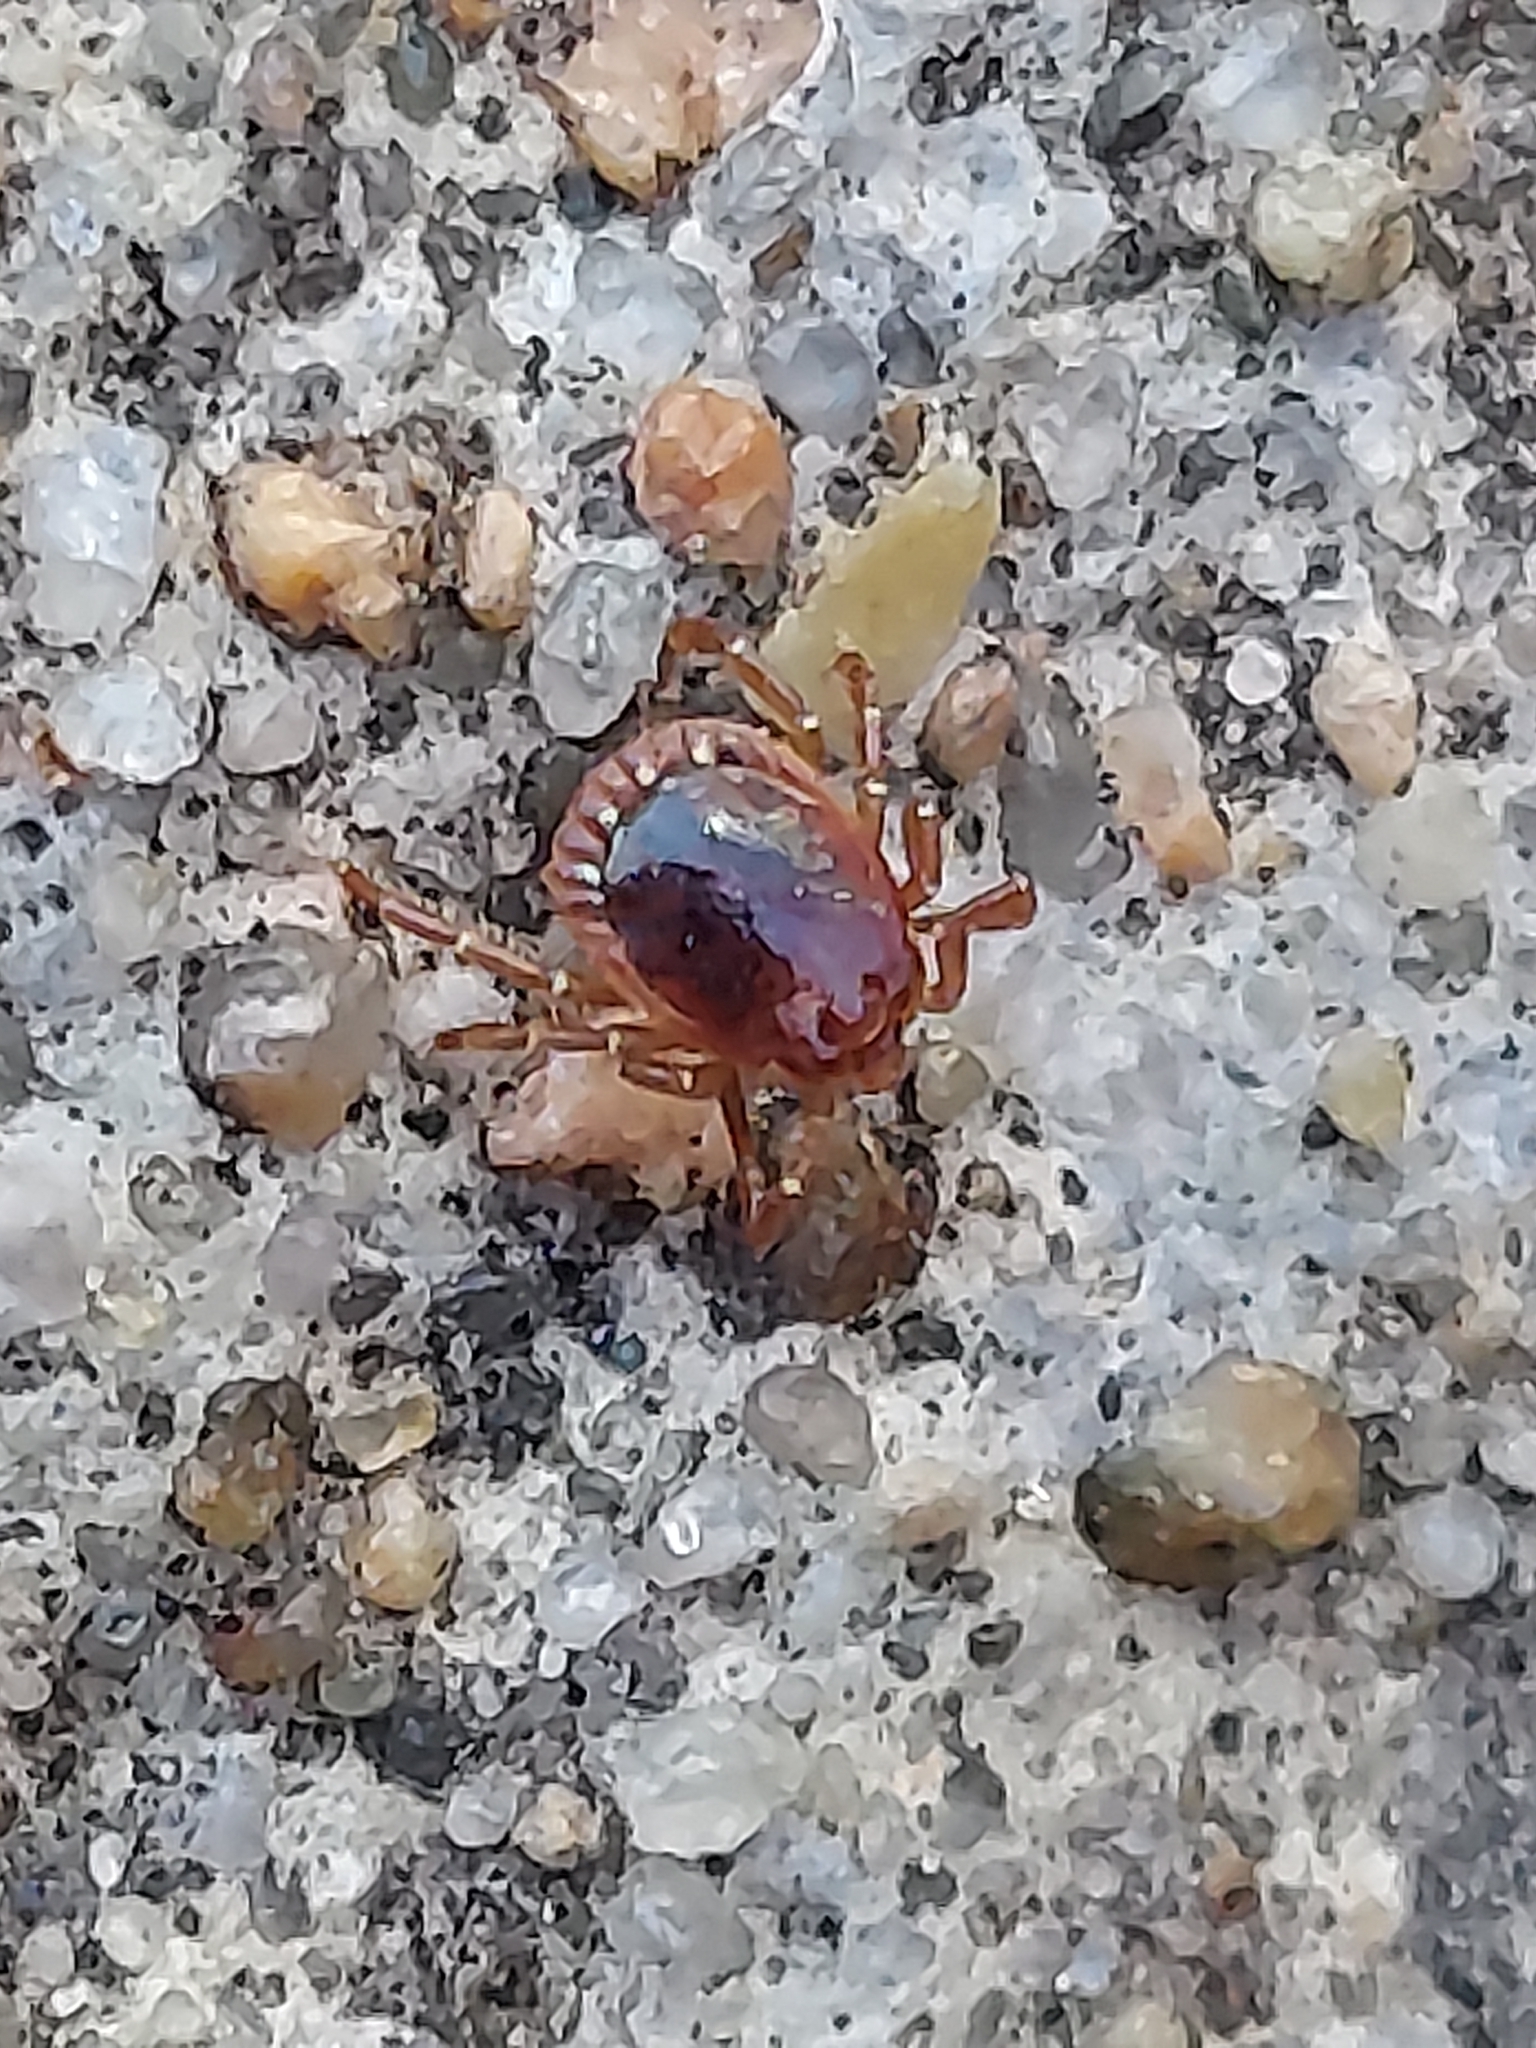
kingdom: Animalia
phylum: Arthropoda
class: Arachnida
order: Ixodida
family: Ixodidae
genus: Amblyomma
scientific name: Amblyomma americanum
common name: Lone star tick
